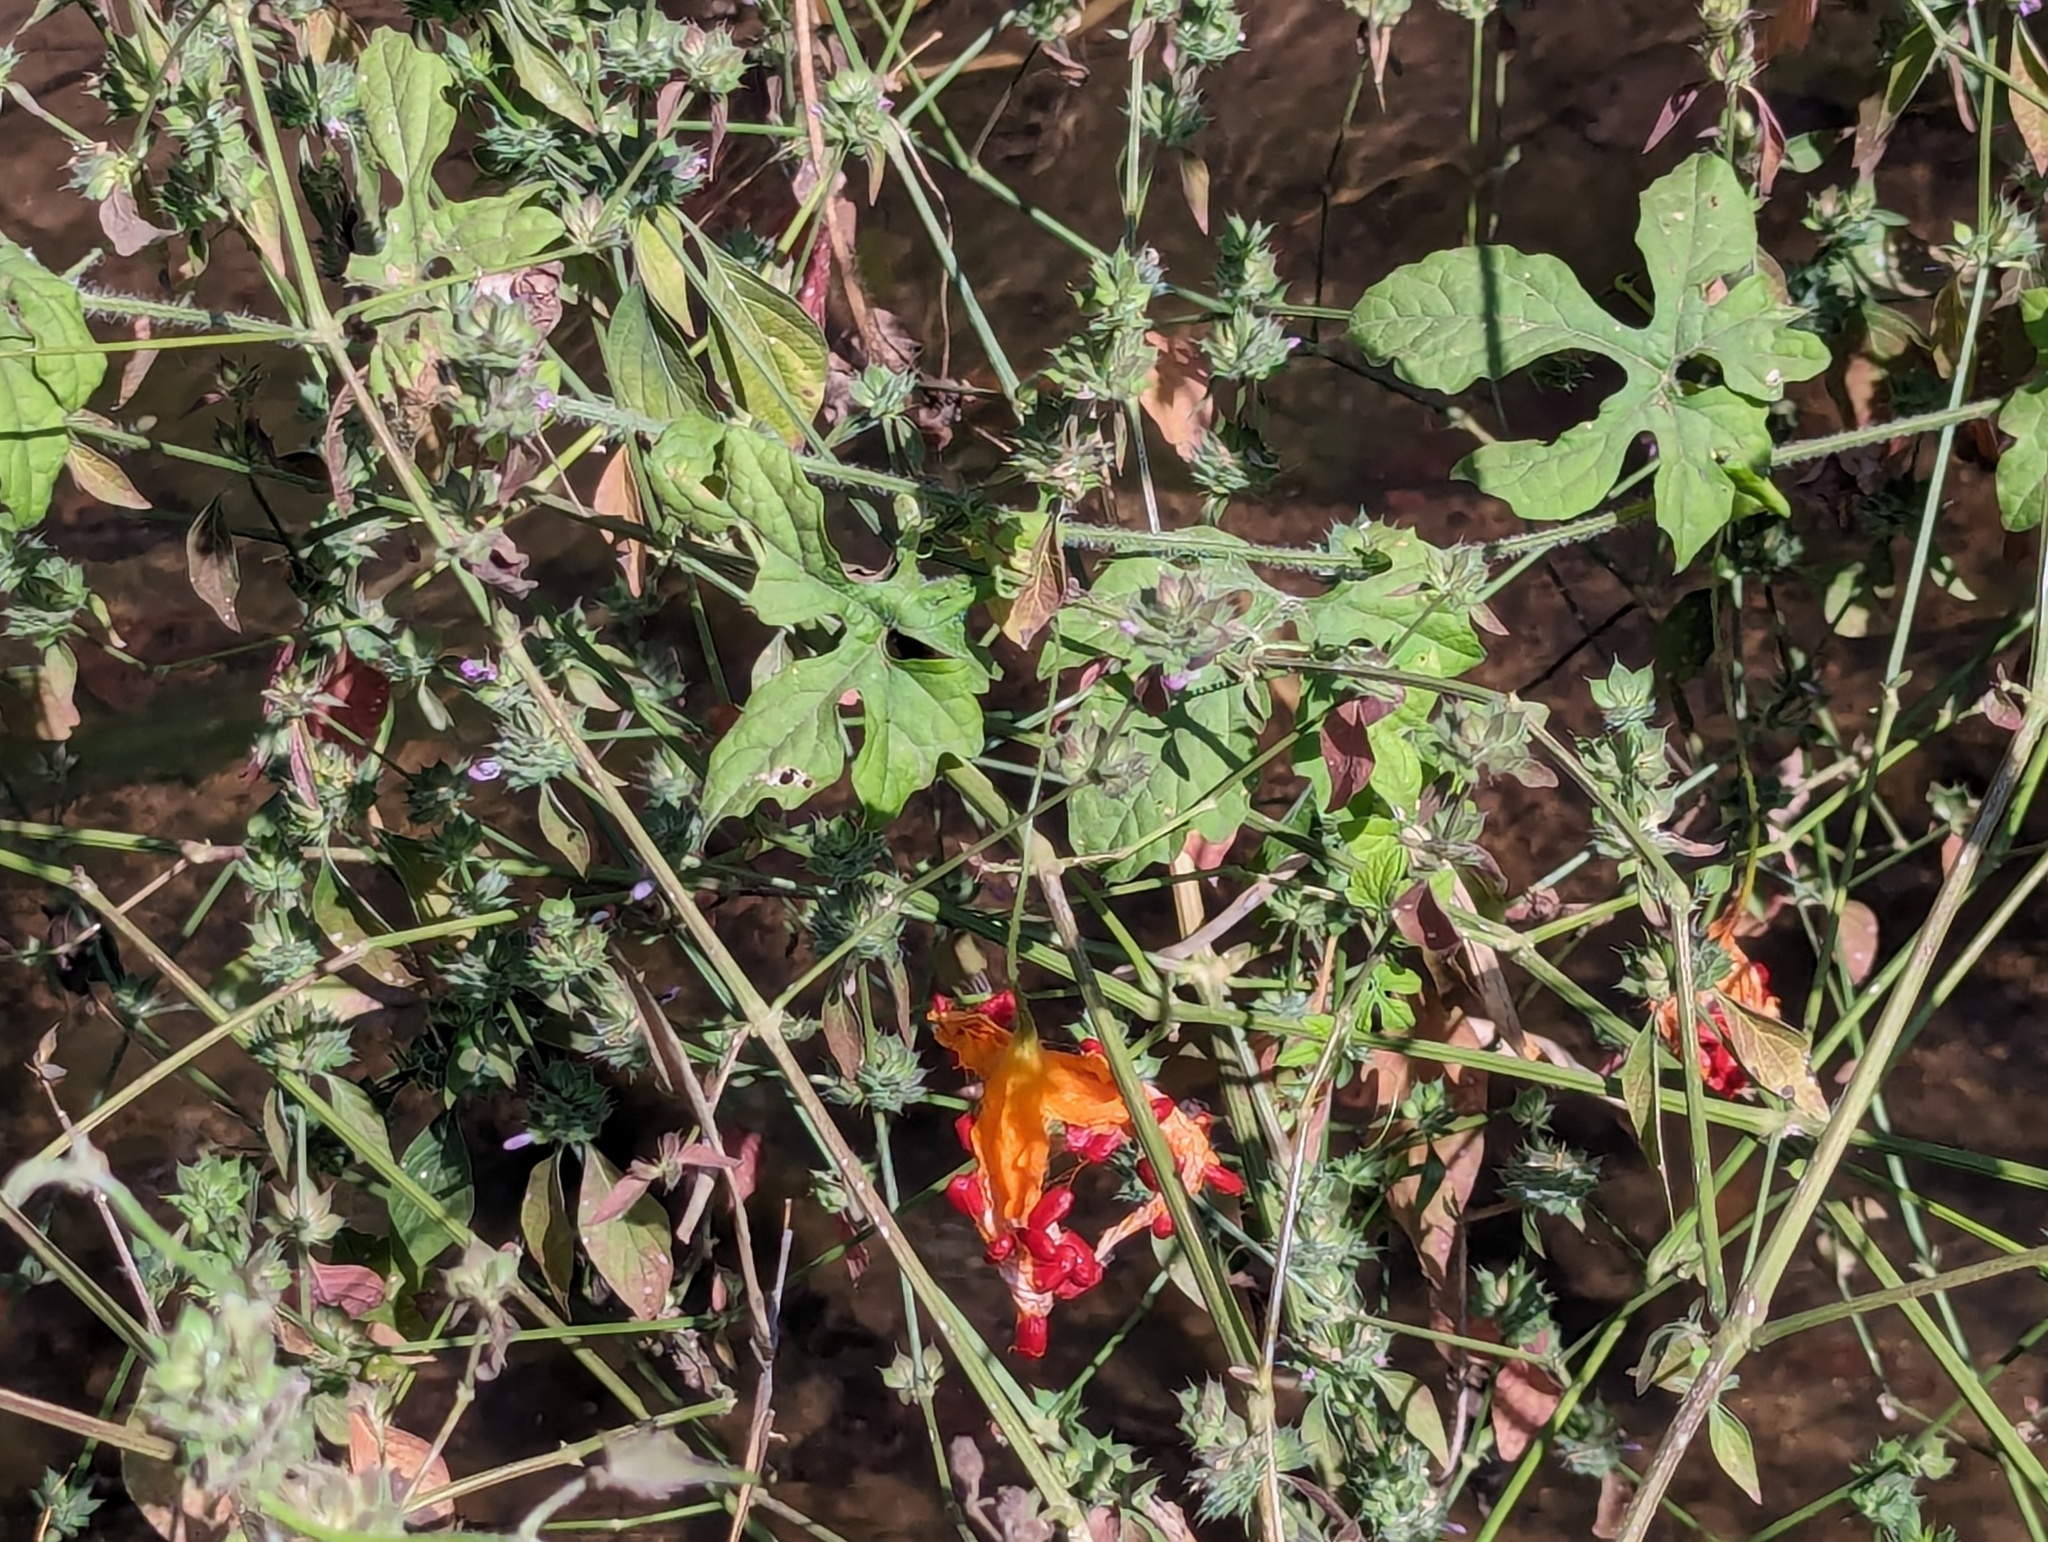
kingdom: Plantae
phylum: Tracheophyta
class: Magnoliopsida
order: Cucurbitales
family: Cucurbitaceae
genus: Momordica
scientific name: Momordica charantia
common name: Balsampear
